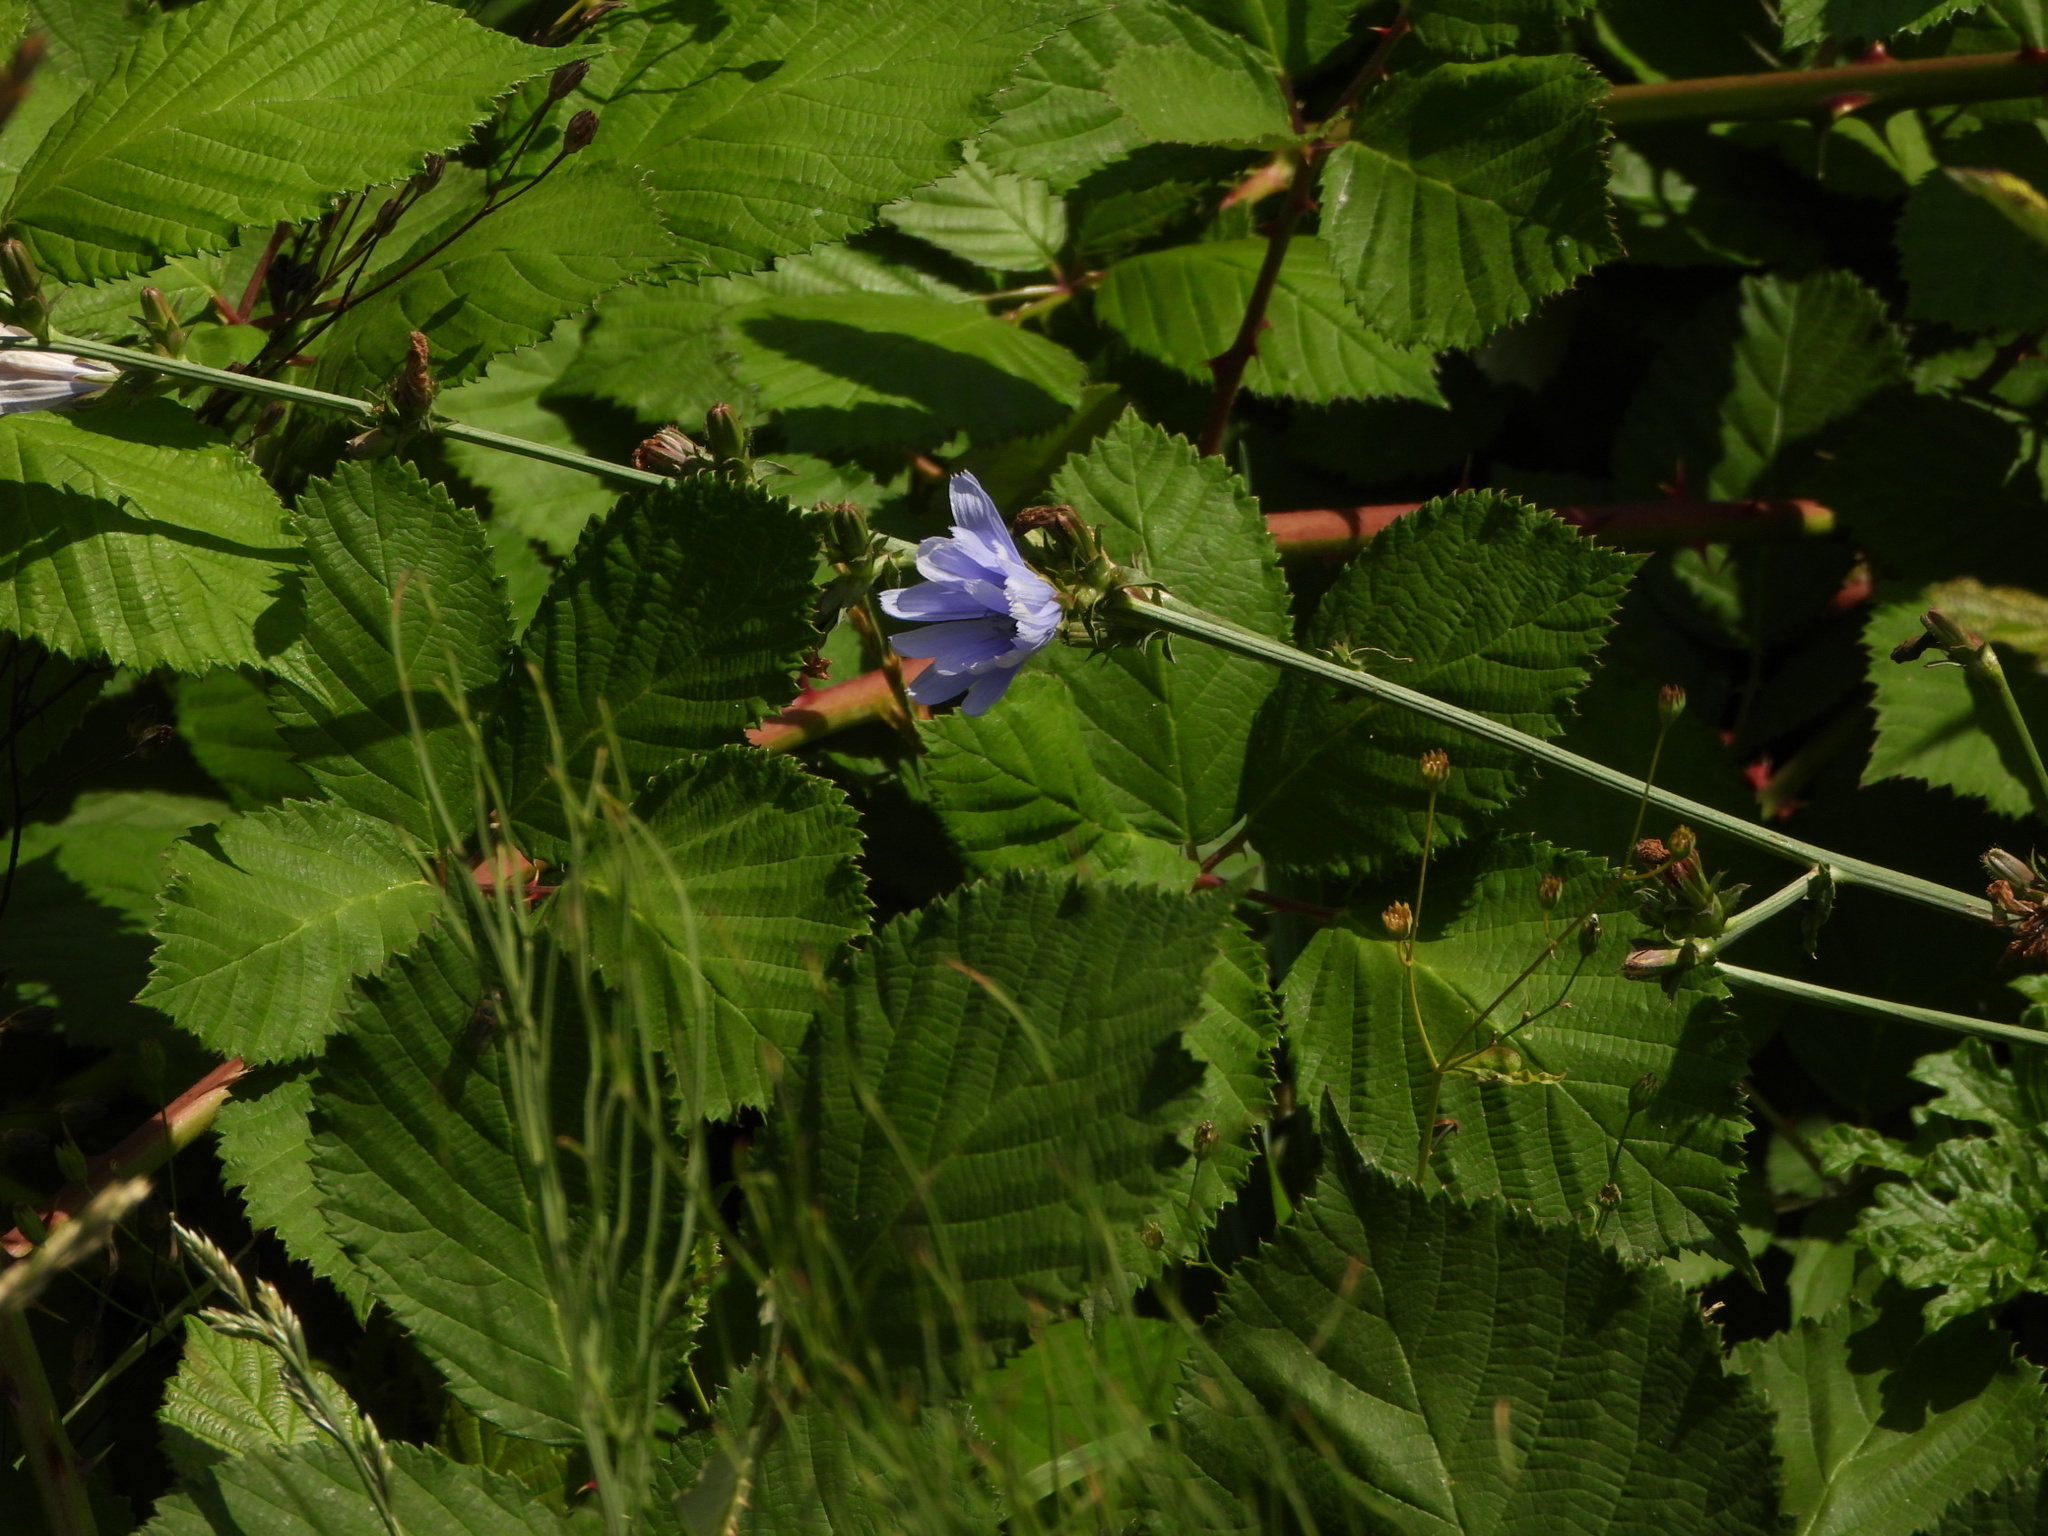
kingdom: Plantae
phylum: Tracheophyta
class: Magnoliopsida
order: Asterales
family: Asteraceae
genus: Cichorium
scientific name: Cichorium intybus
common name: Chicory
